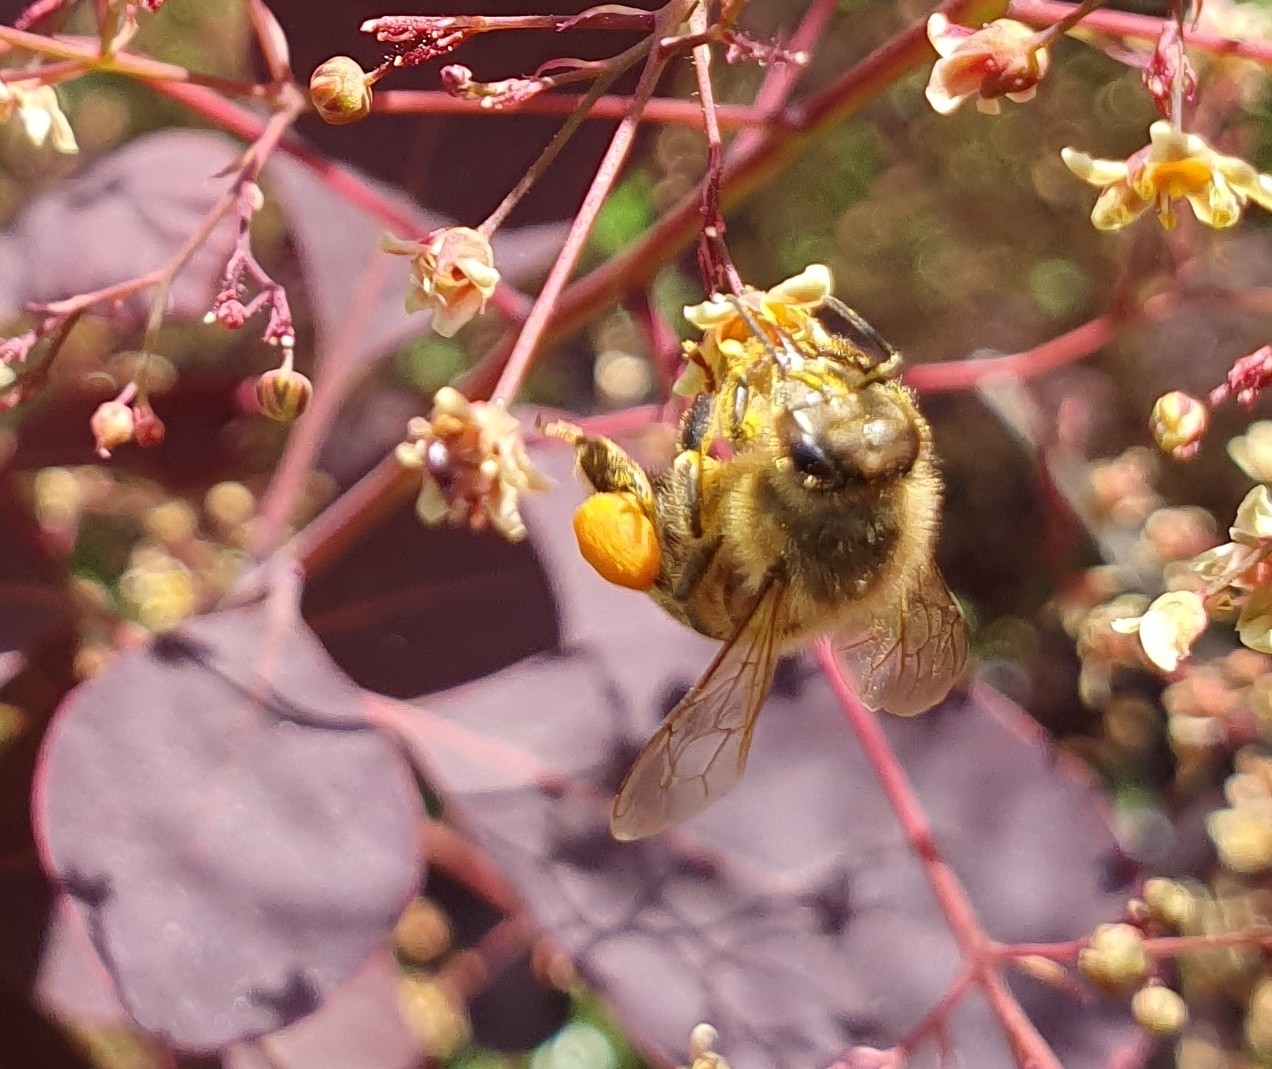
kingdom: Animalia
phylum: Arthropoda
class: Insecta
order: Hymenoptera
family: Apidae
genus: Apis
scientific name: Apis mellifera
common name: Honey bee
